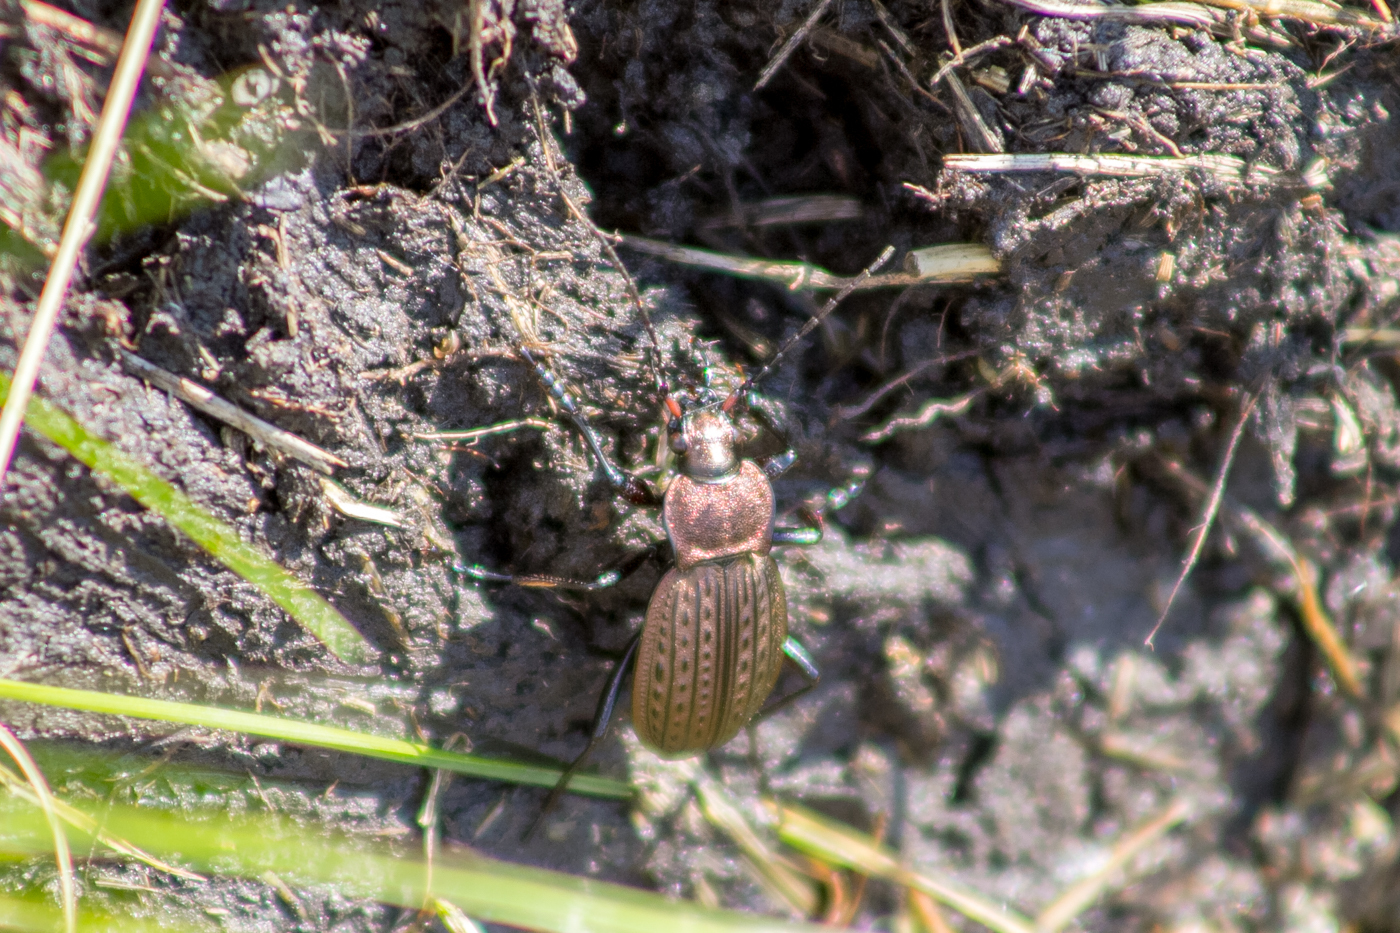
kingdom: Animalia
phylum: Arthropoda
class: Insecta
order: Coleoptera
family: Carabidae
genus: Carabus
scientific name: Carabus cancellatus
